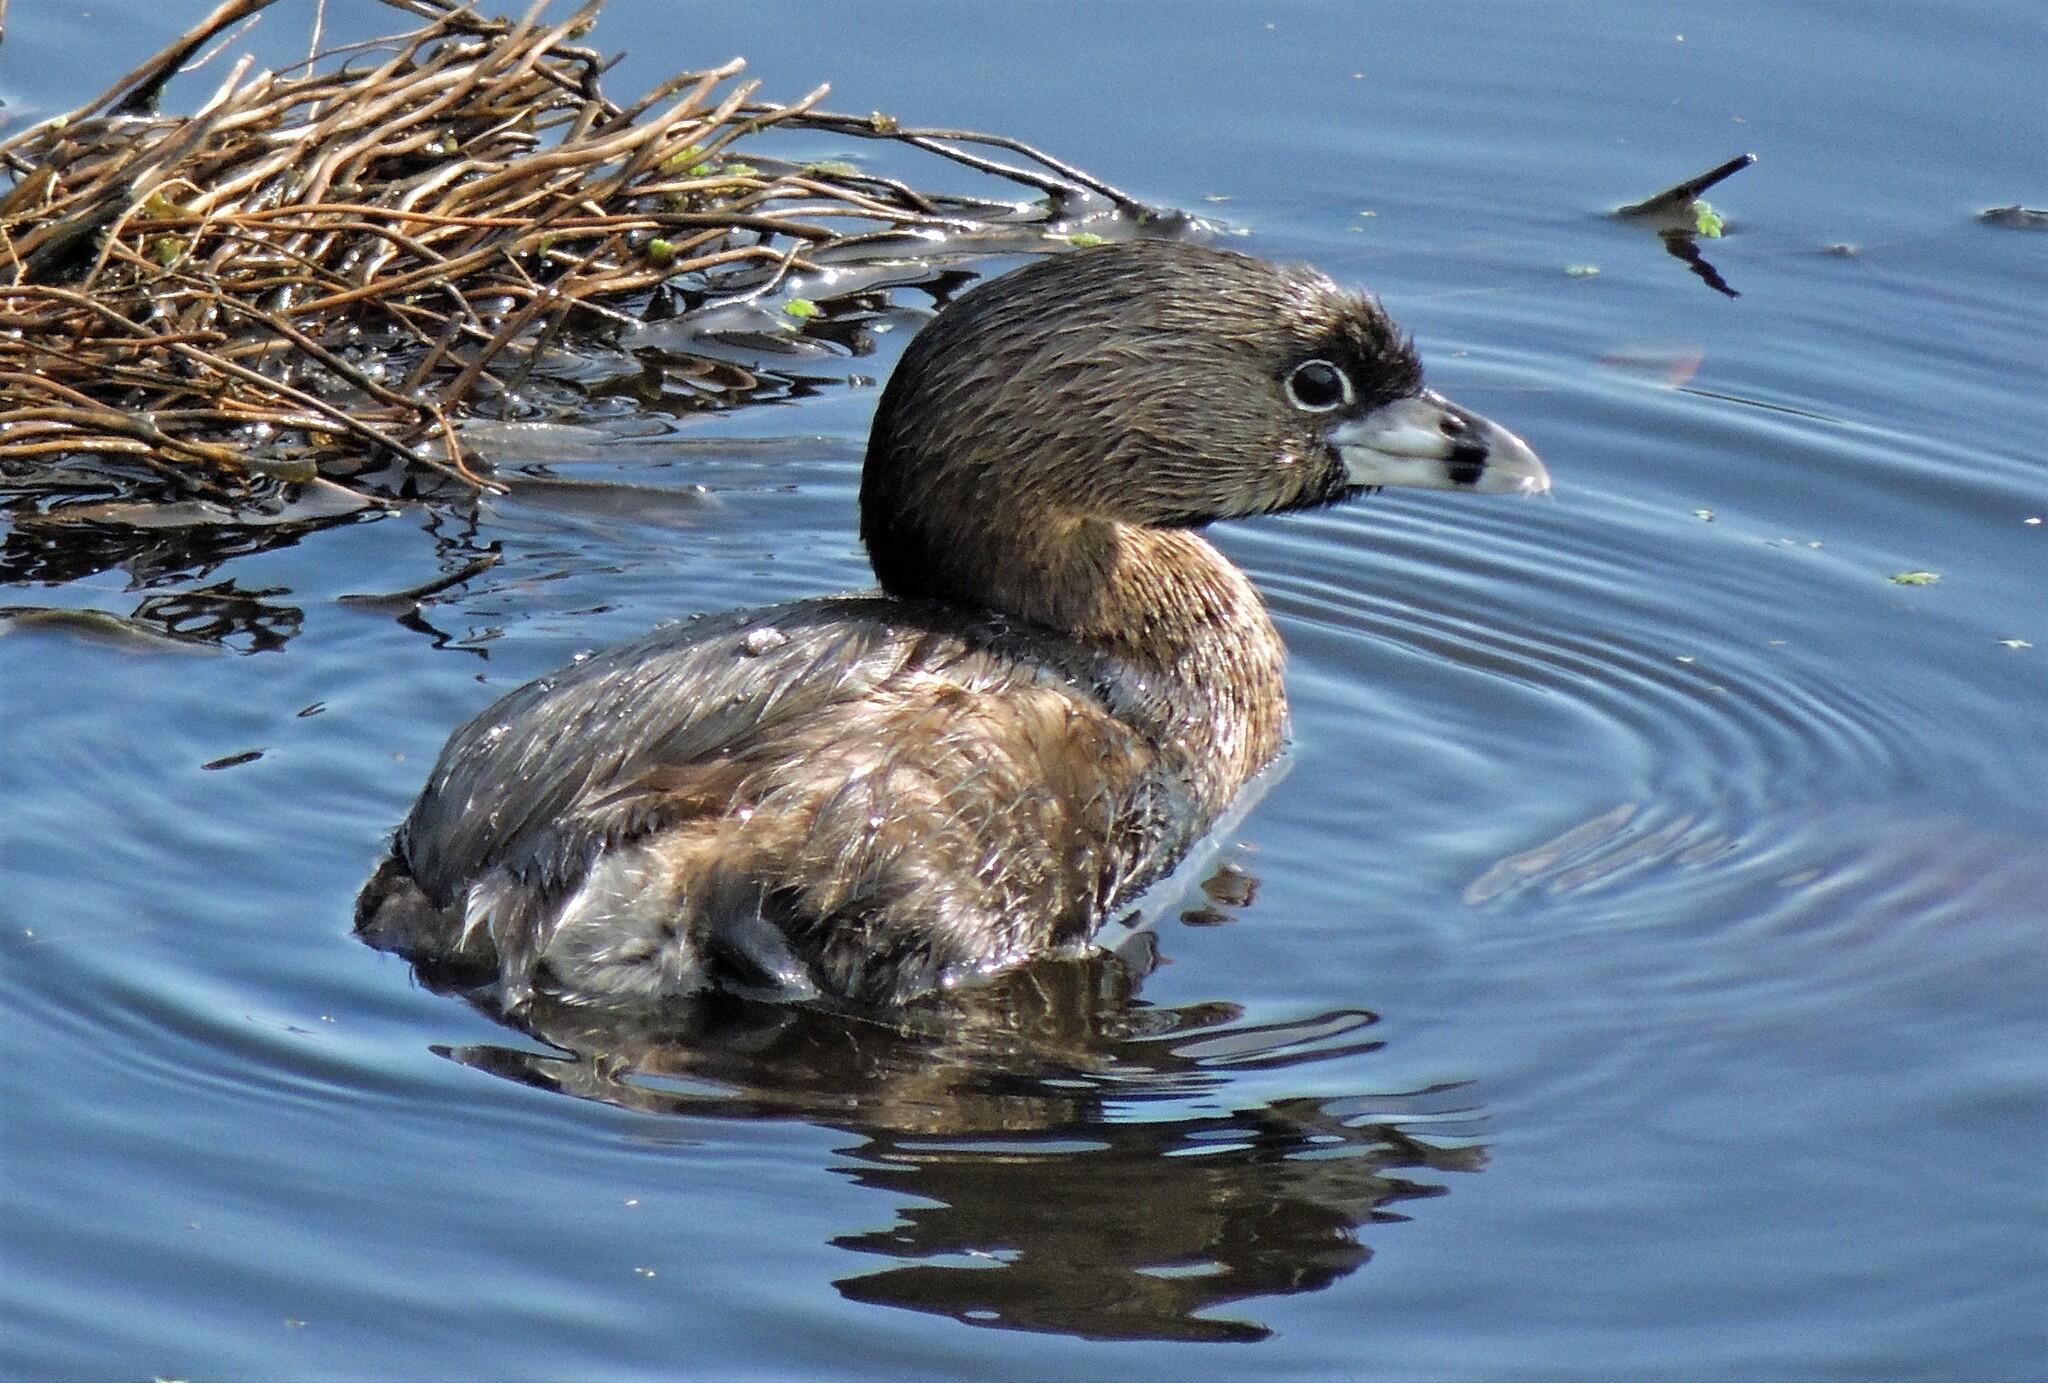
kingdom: Animalia
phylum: Chordata
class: Aves
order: Podicipediformes
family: Podicipedidae
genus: Podilymbus
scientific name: Podilymbus podiceps
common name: Pied-billed grebe
